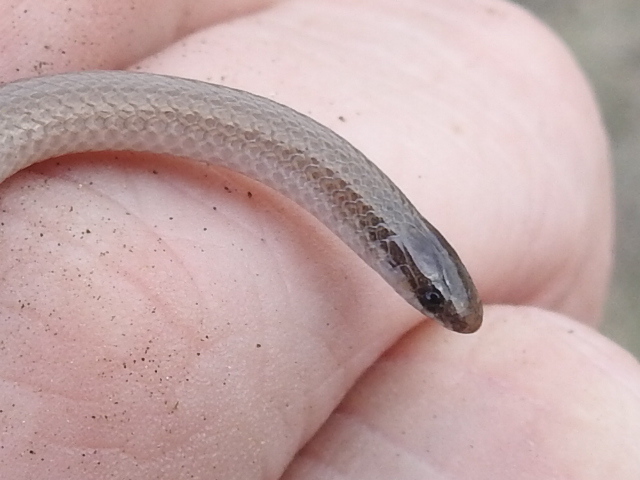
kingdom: Animalia
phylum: Chordata
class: Squamata
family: Colubridae
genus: Tantilla
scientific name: Tantilla gracilis
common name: Flathead snake
